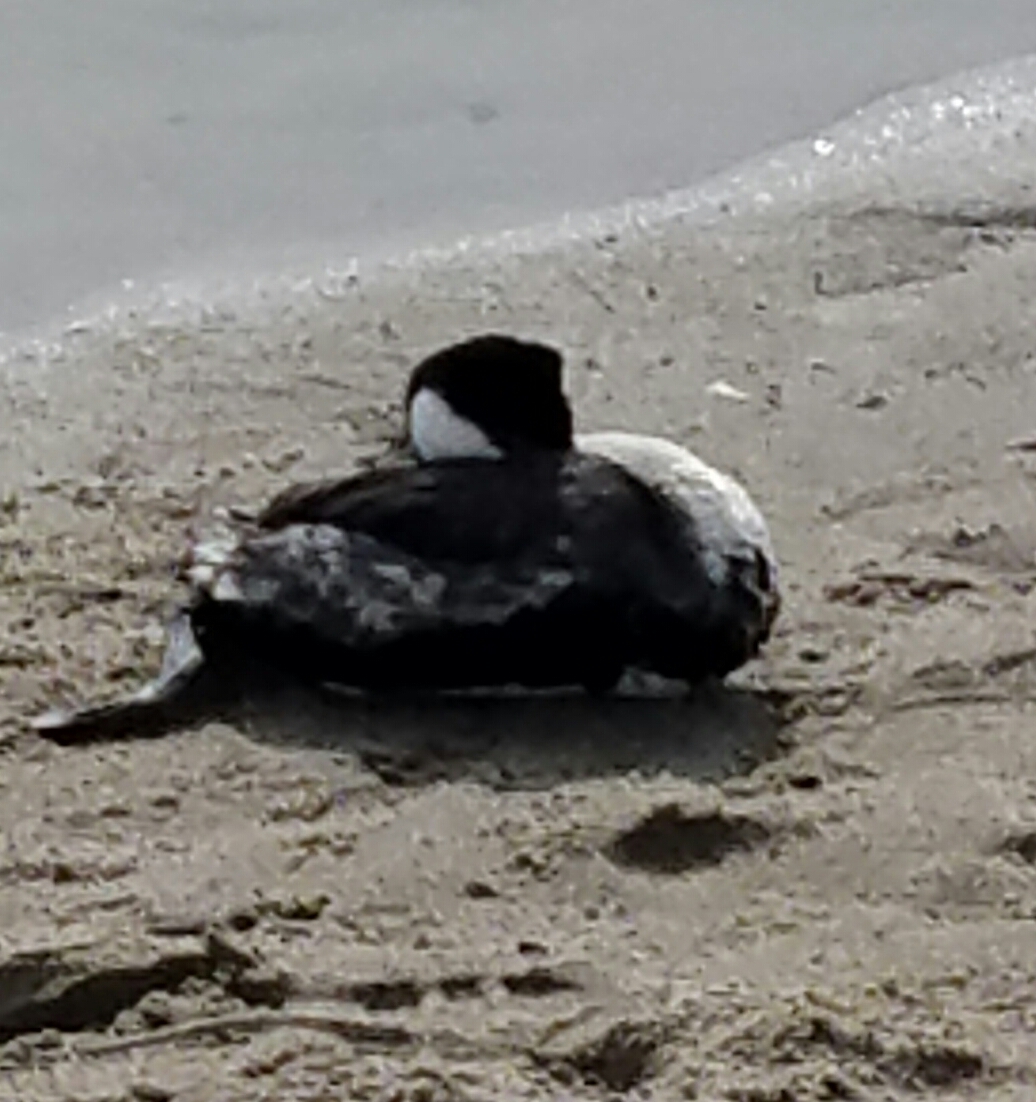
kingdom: Animalia
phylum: Chordata
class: Aves
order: Podicipediformes
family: Podicipedidae
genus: Aechmophorus
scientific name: Aechmophorus occidentalis
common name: Western grebe
